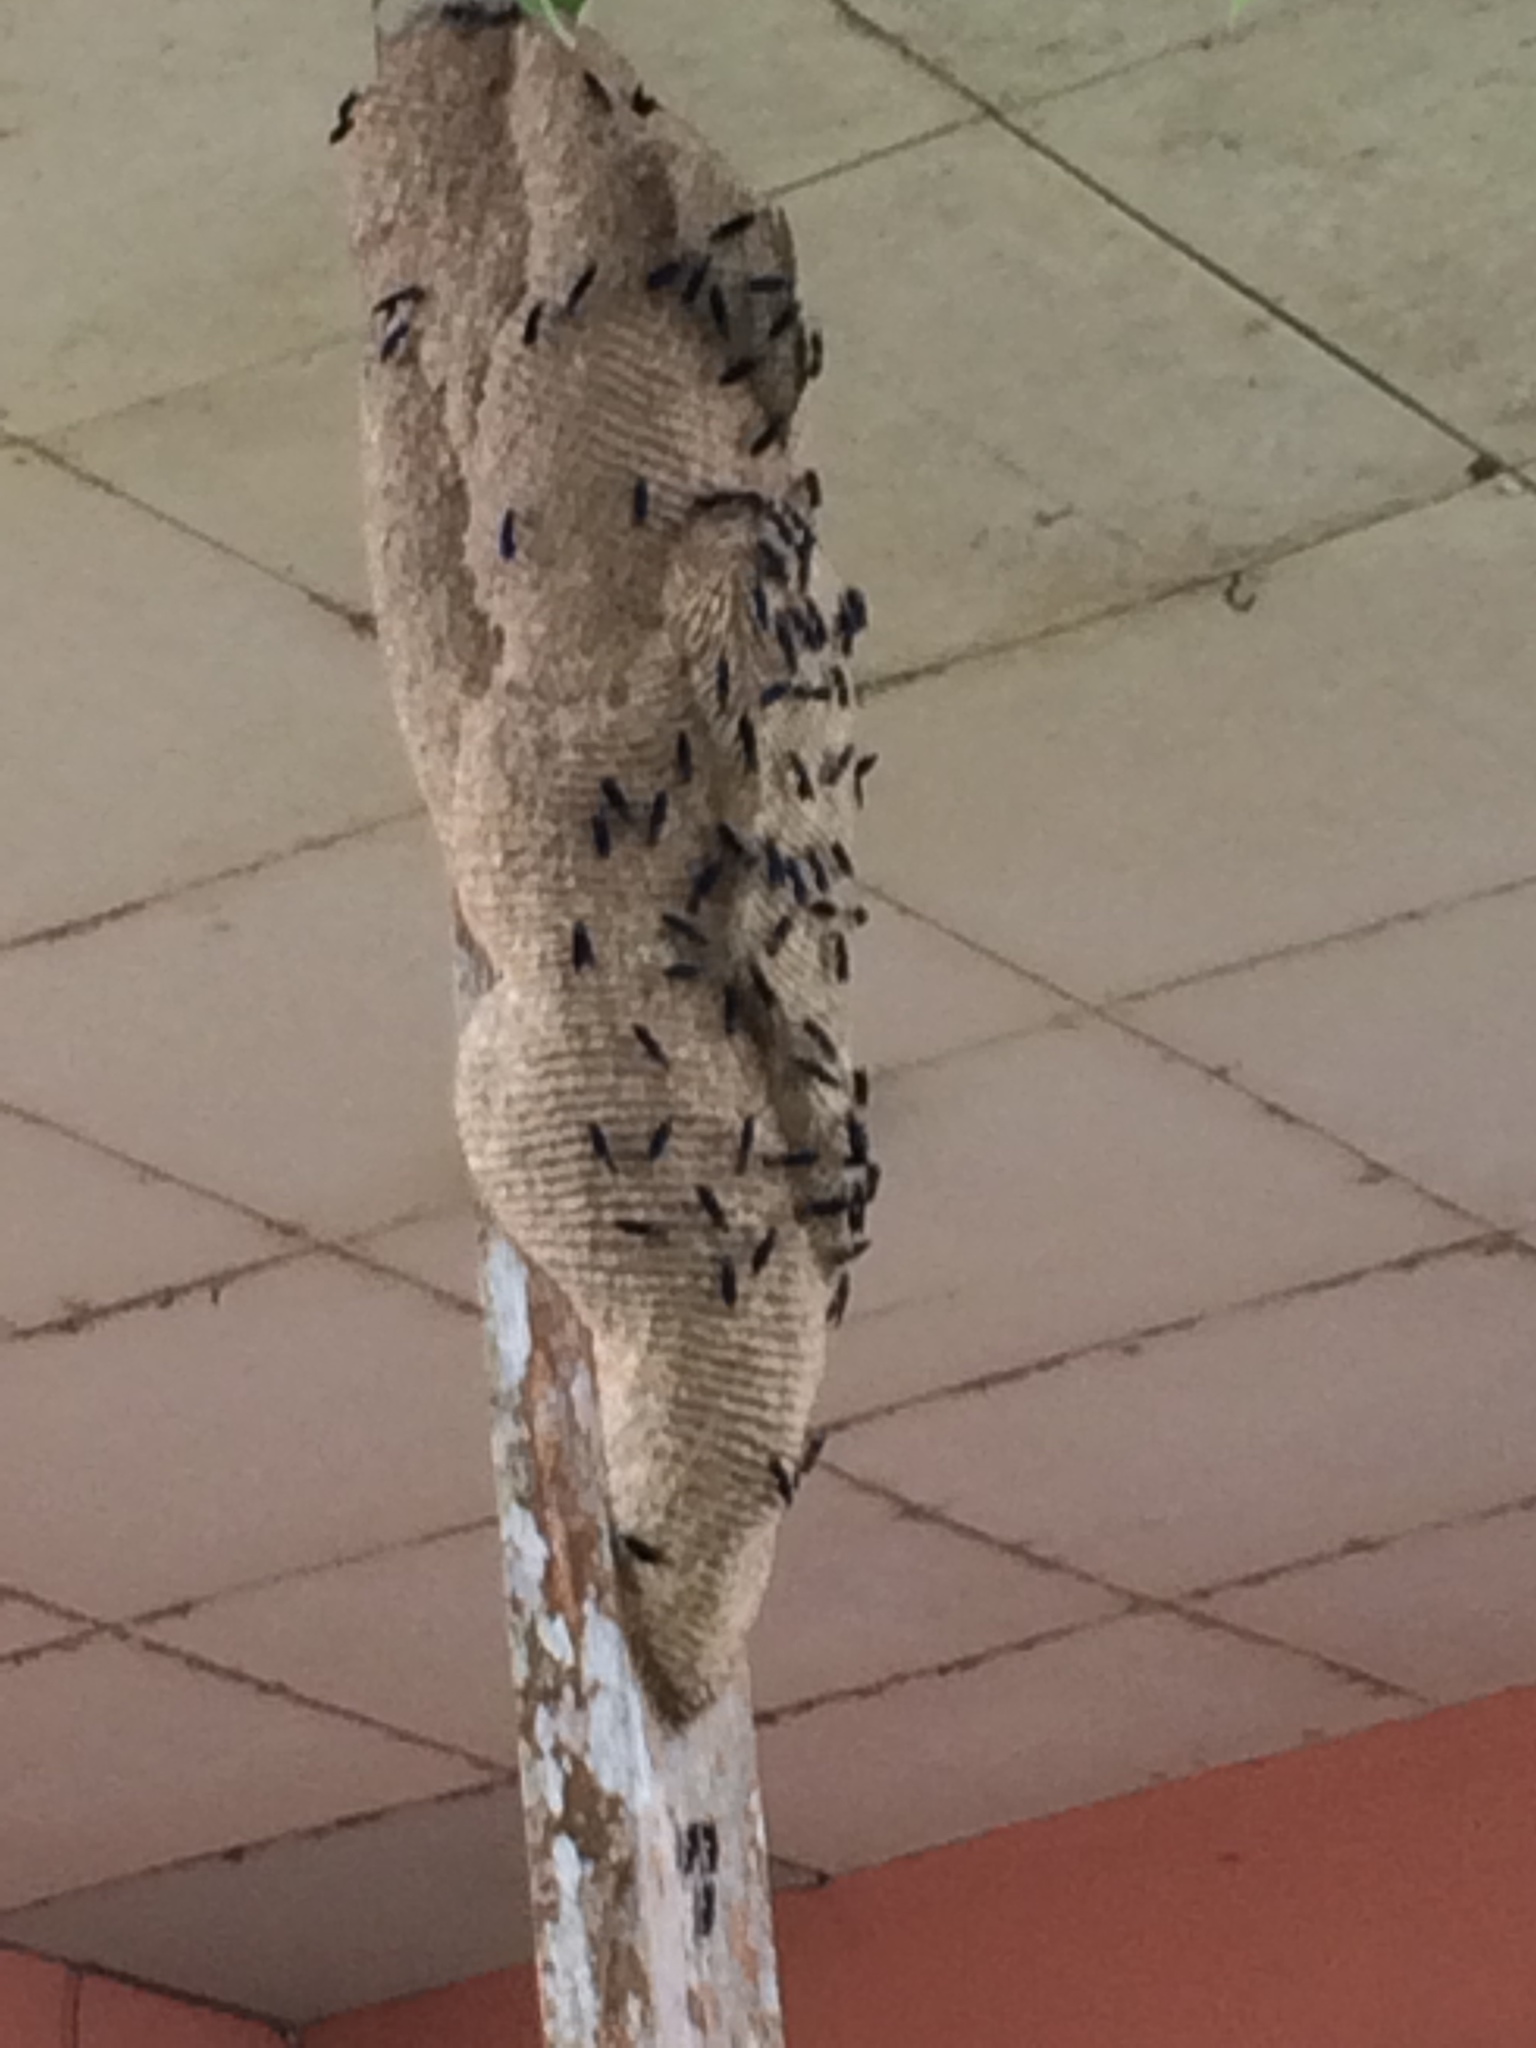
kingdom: Animalia
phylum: Arthropoda
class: Insecta
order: Hymenoptera
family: Vespidae
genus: Synoeca
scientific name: Synoeca septentrionalis
